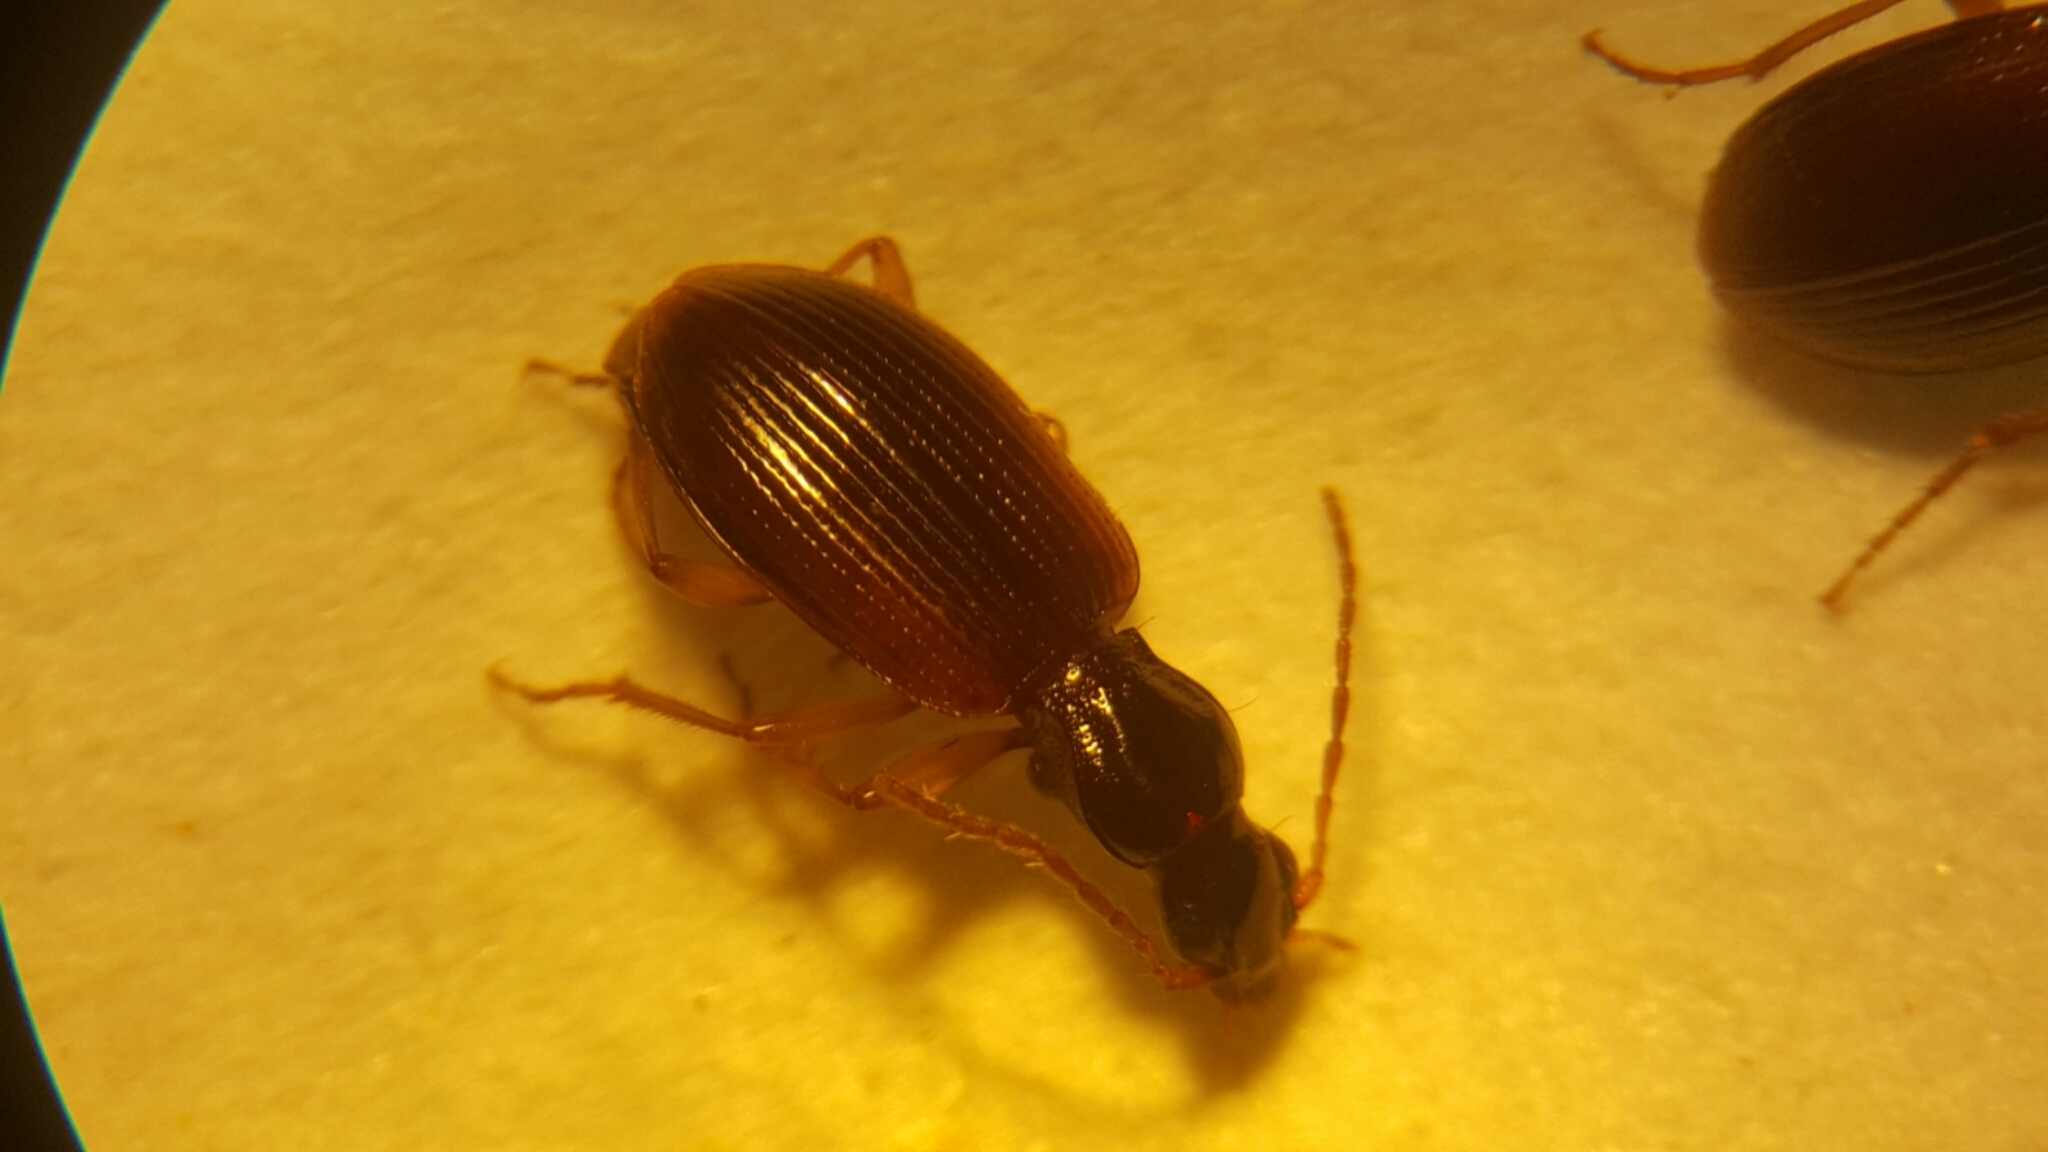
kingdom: Animalia
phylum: Arthropoda
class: Insecta
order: Coleoptera
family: Carabidae
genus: Oxypselaphus
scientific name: Oxypselaphus obscurus
